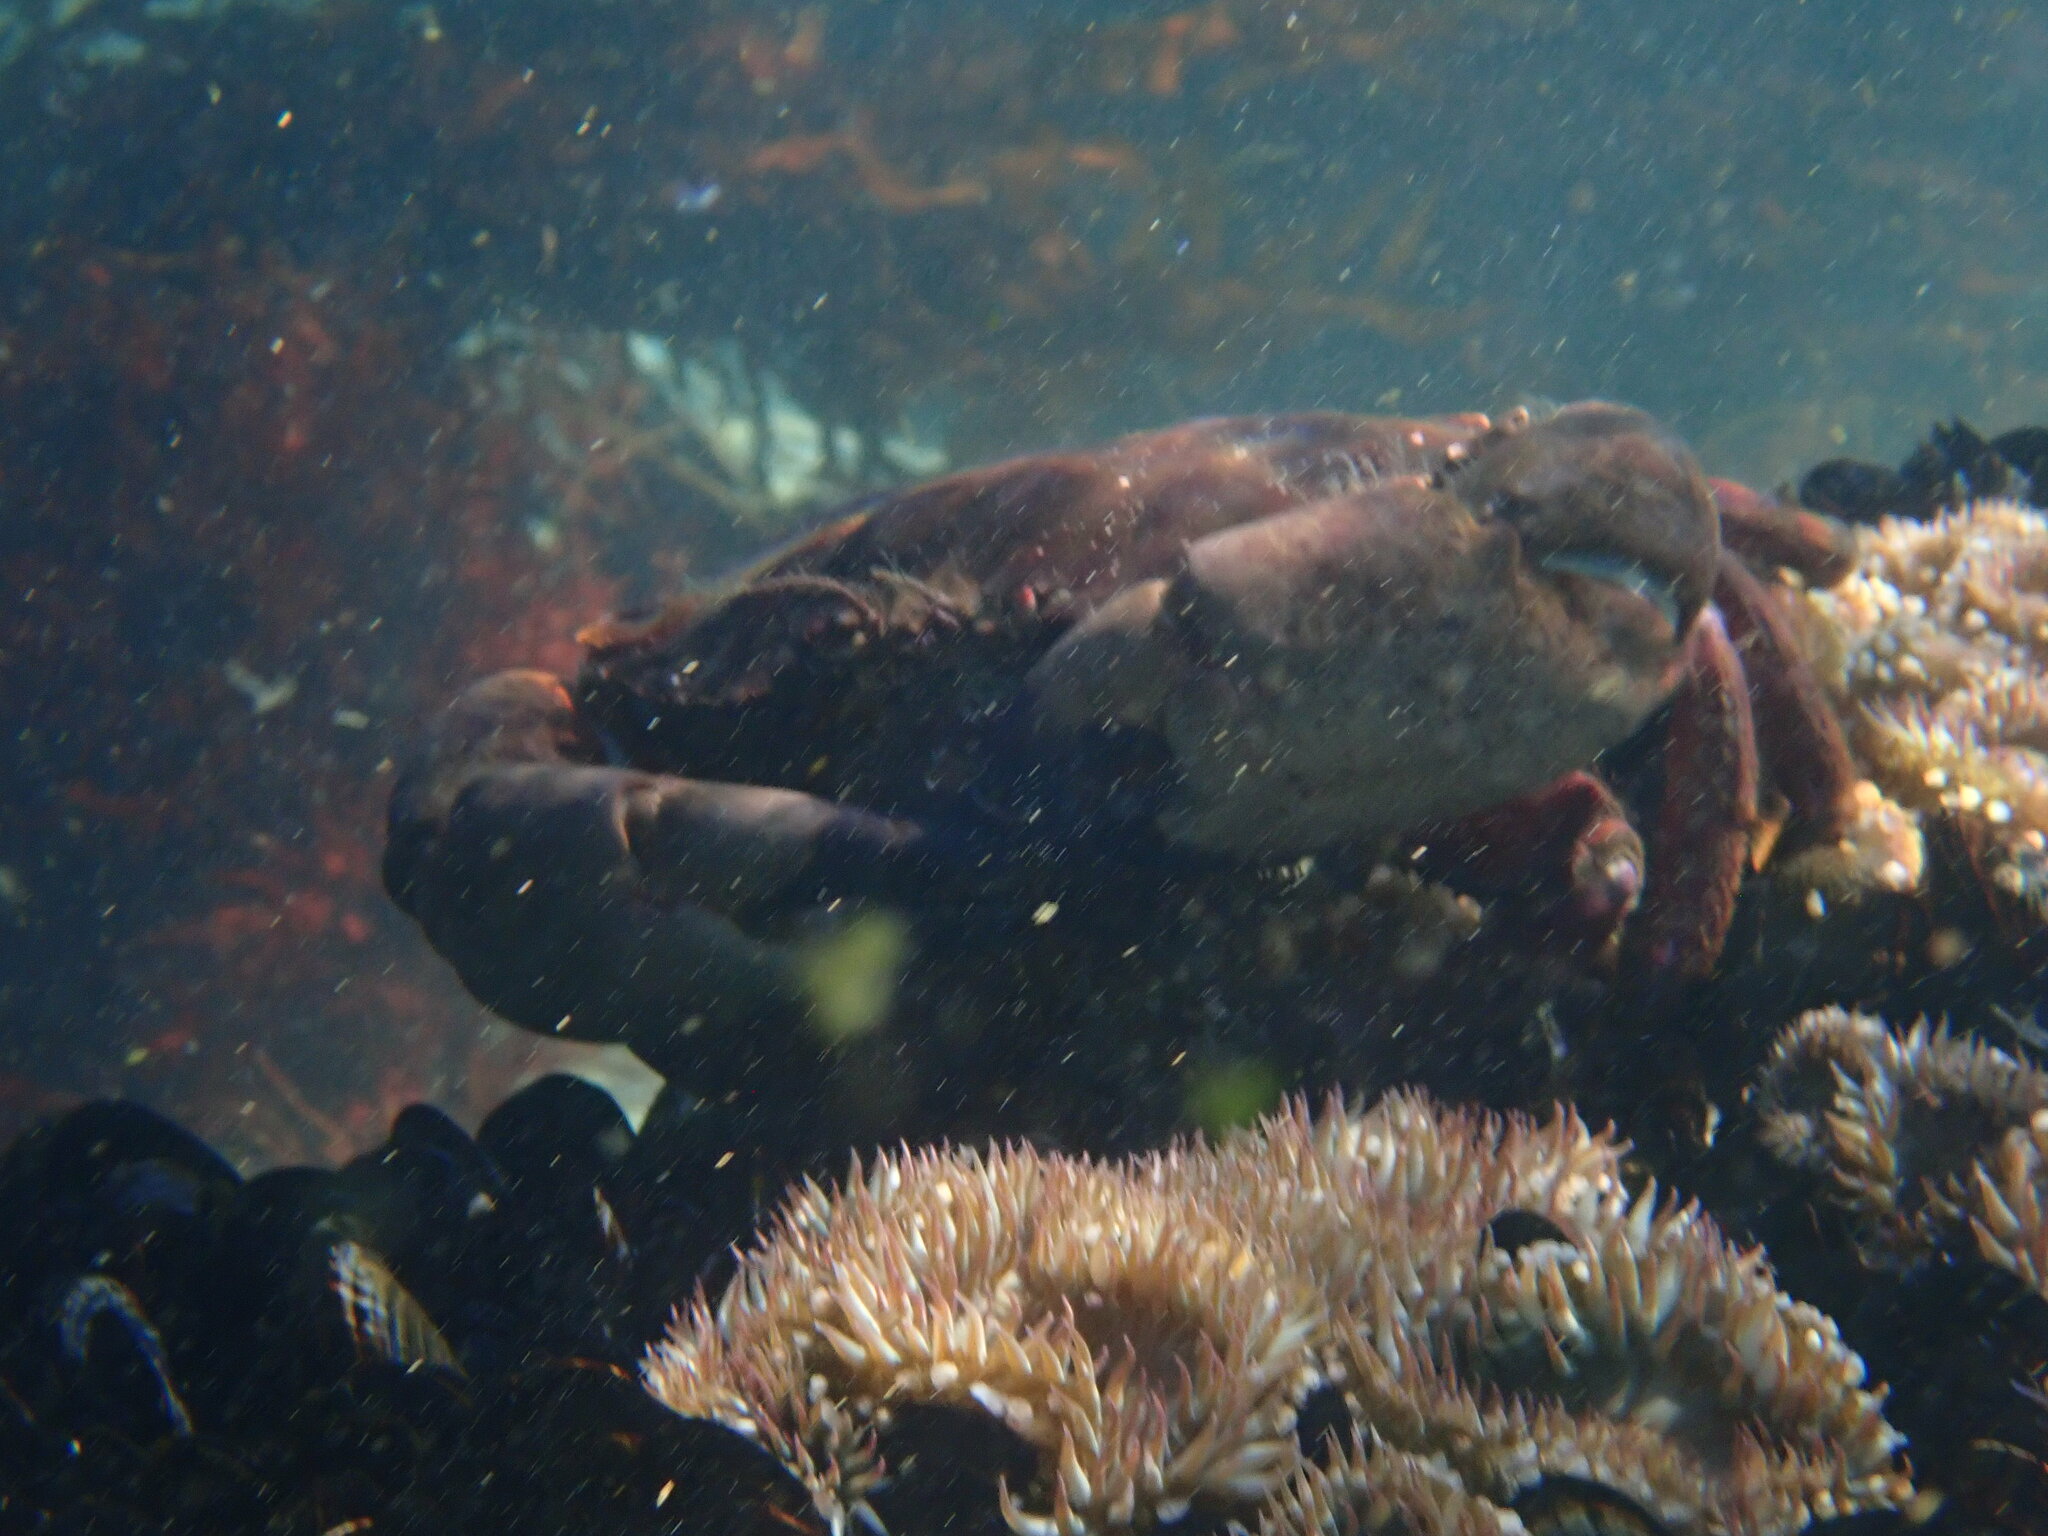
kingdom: Animalia
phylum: Arthropoda
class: Malacostraca
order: Decapoda
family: Cancridae
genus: Romaleon
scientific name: Romaleon antennarium
